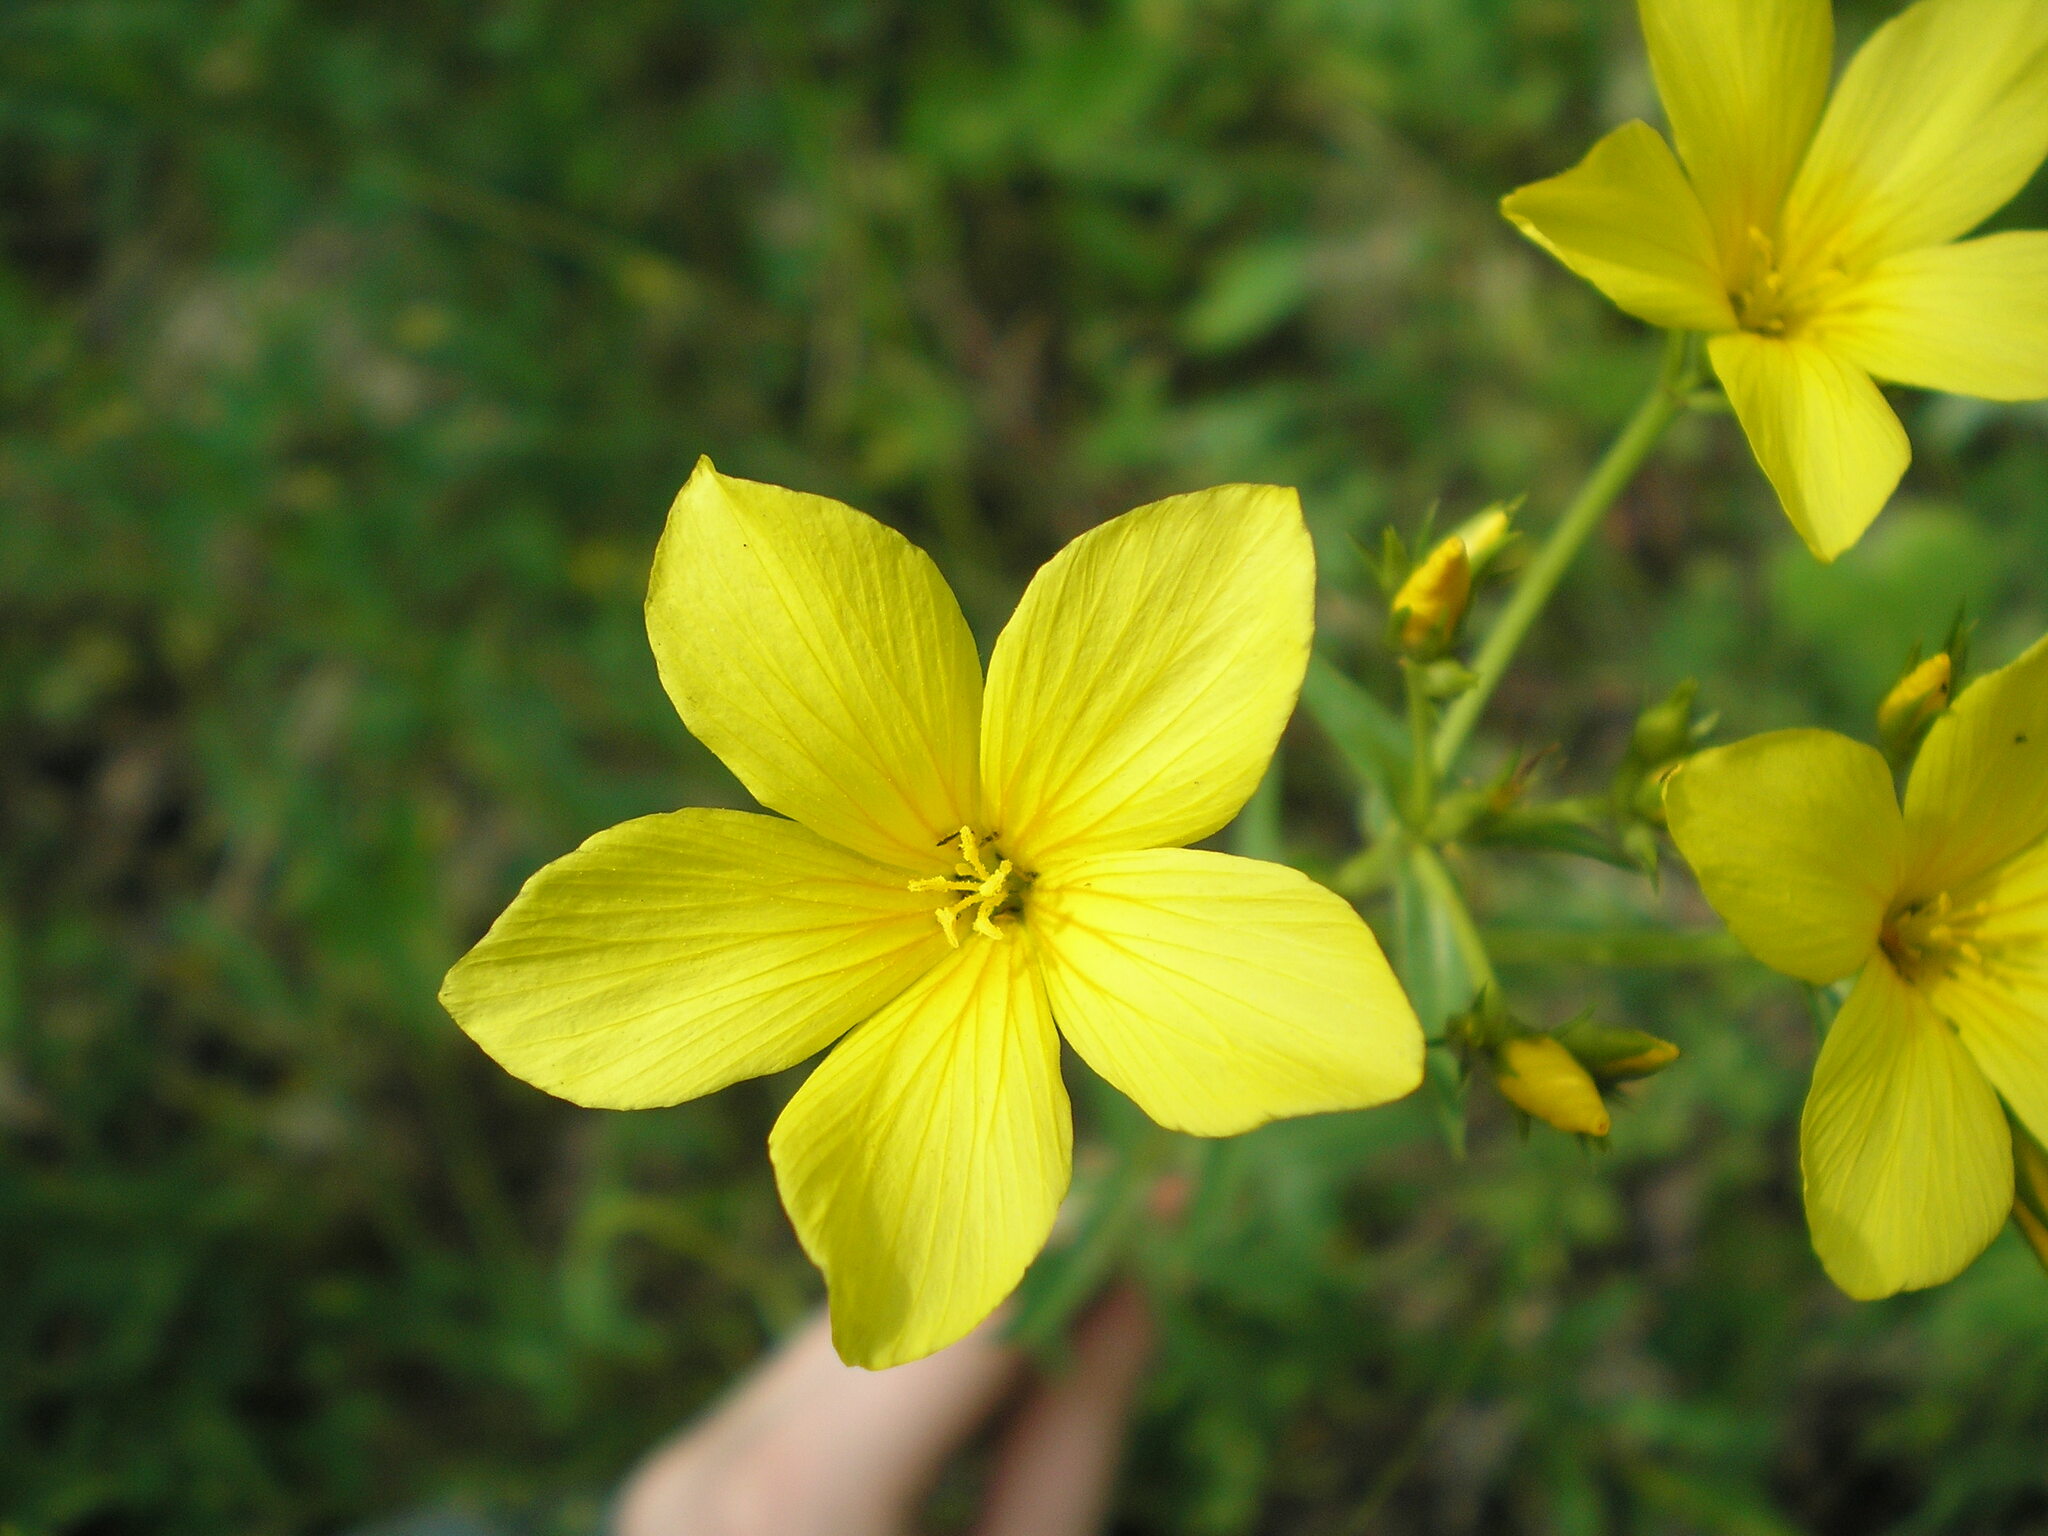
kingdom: Plantae
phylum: Tracheophyta
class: Magnoliopsida
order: Malpighiales
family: Linaceae
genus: Linum
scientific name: Linum flavum
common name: Yellow flax
